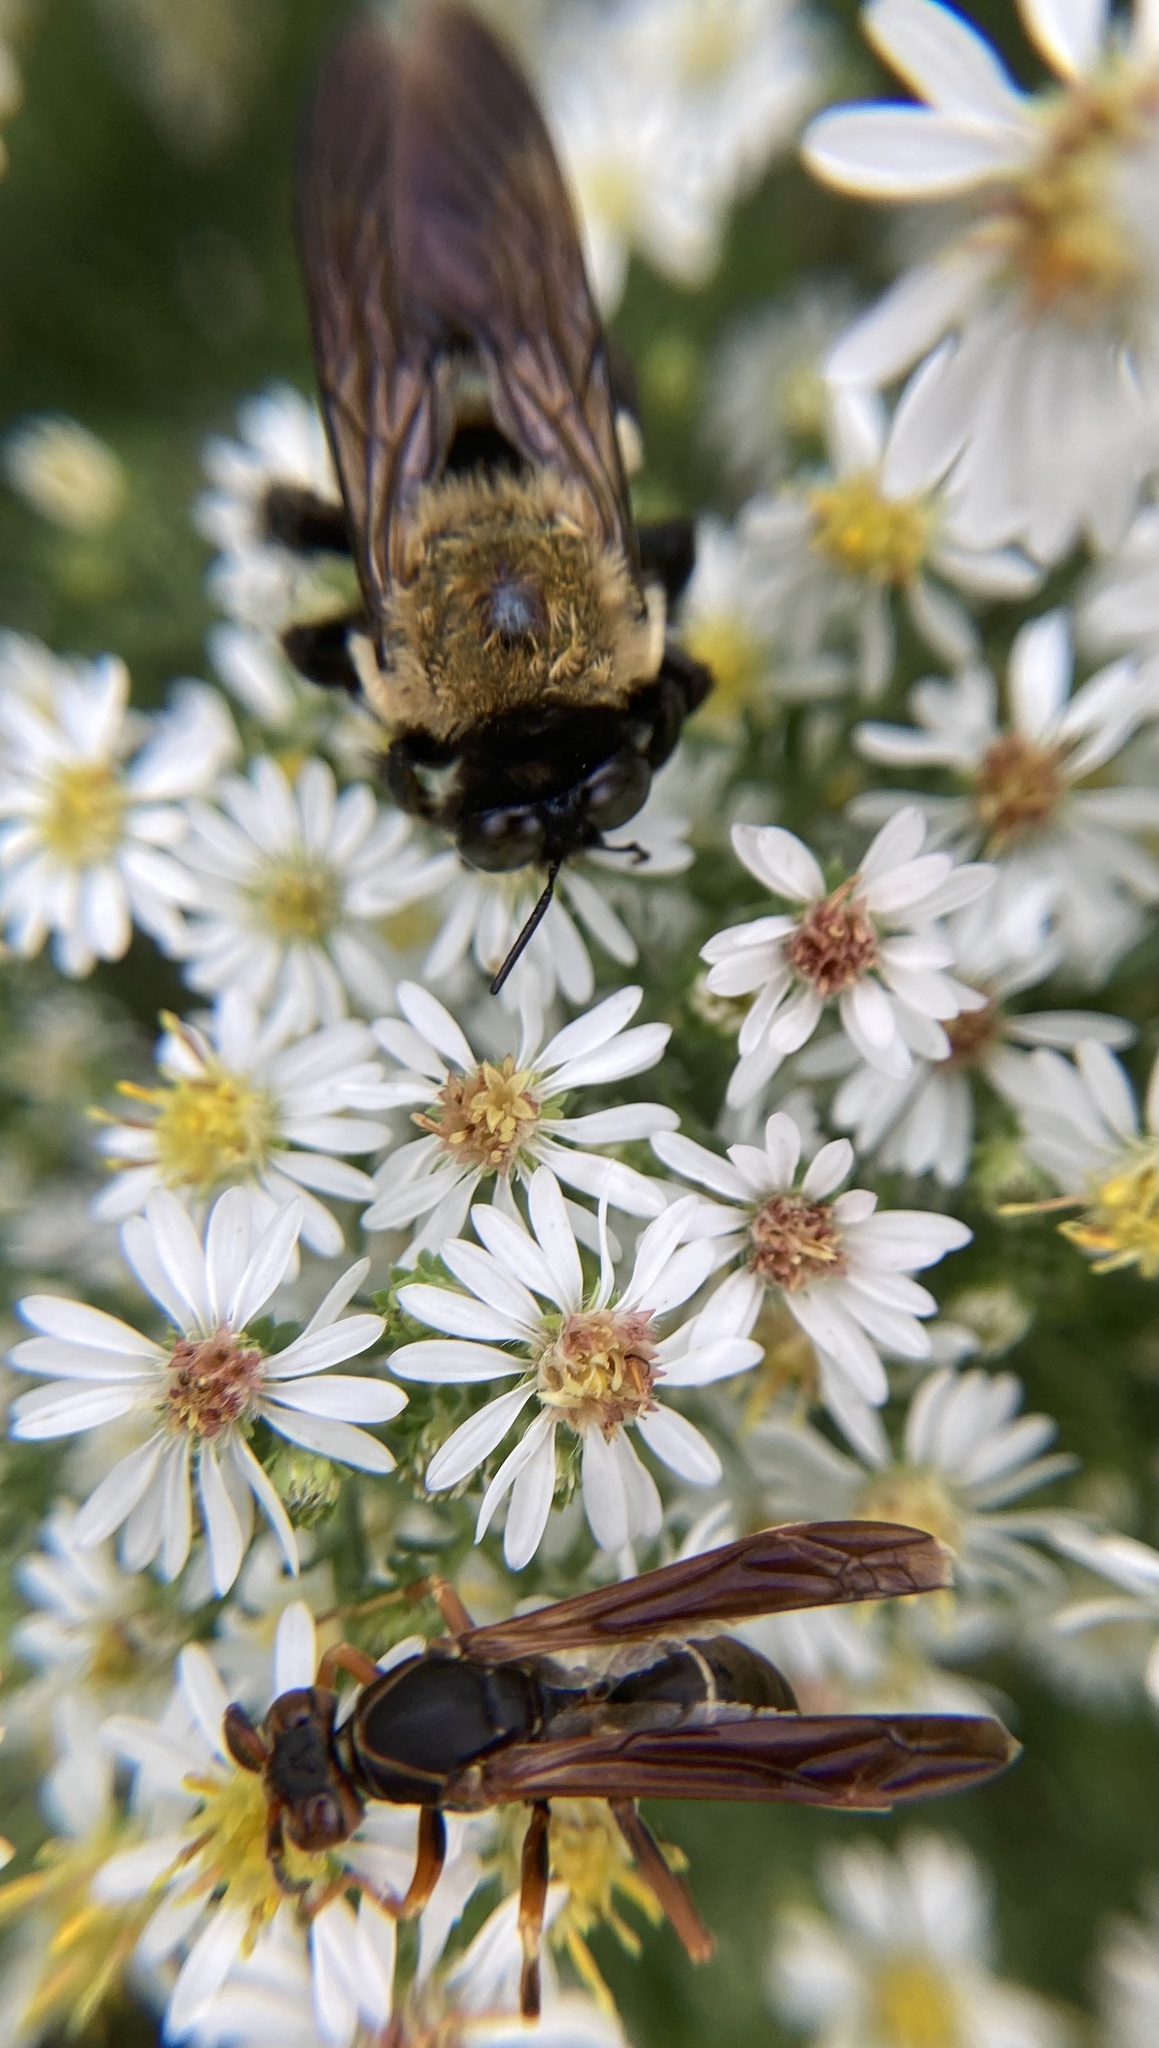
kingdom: Animalia
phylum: Arthropoda
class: Insecta
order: Hymenoptera
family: Eumenidae
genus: Polistes
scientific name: Polistes fuscatus
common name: Dark paper wasp
